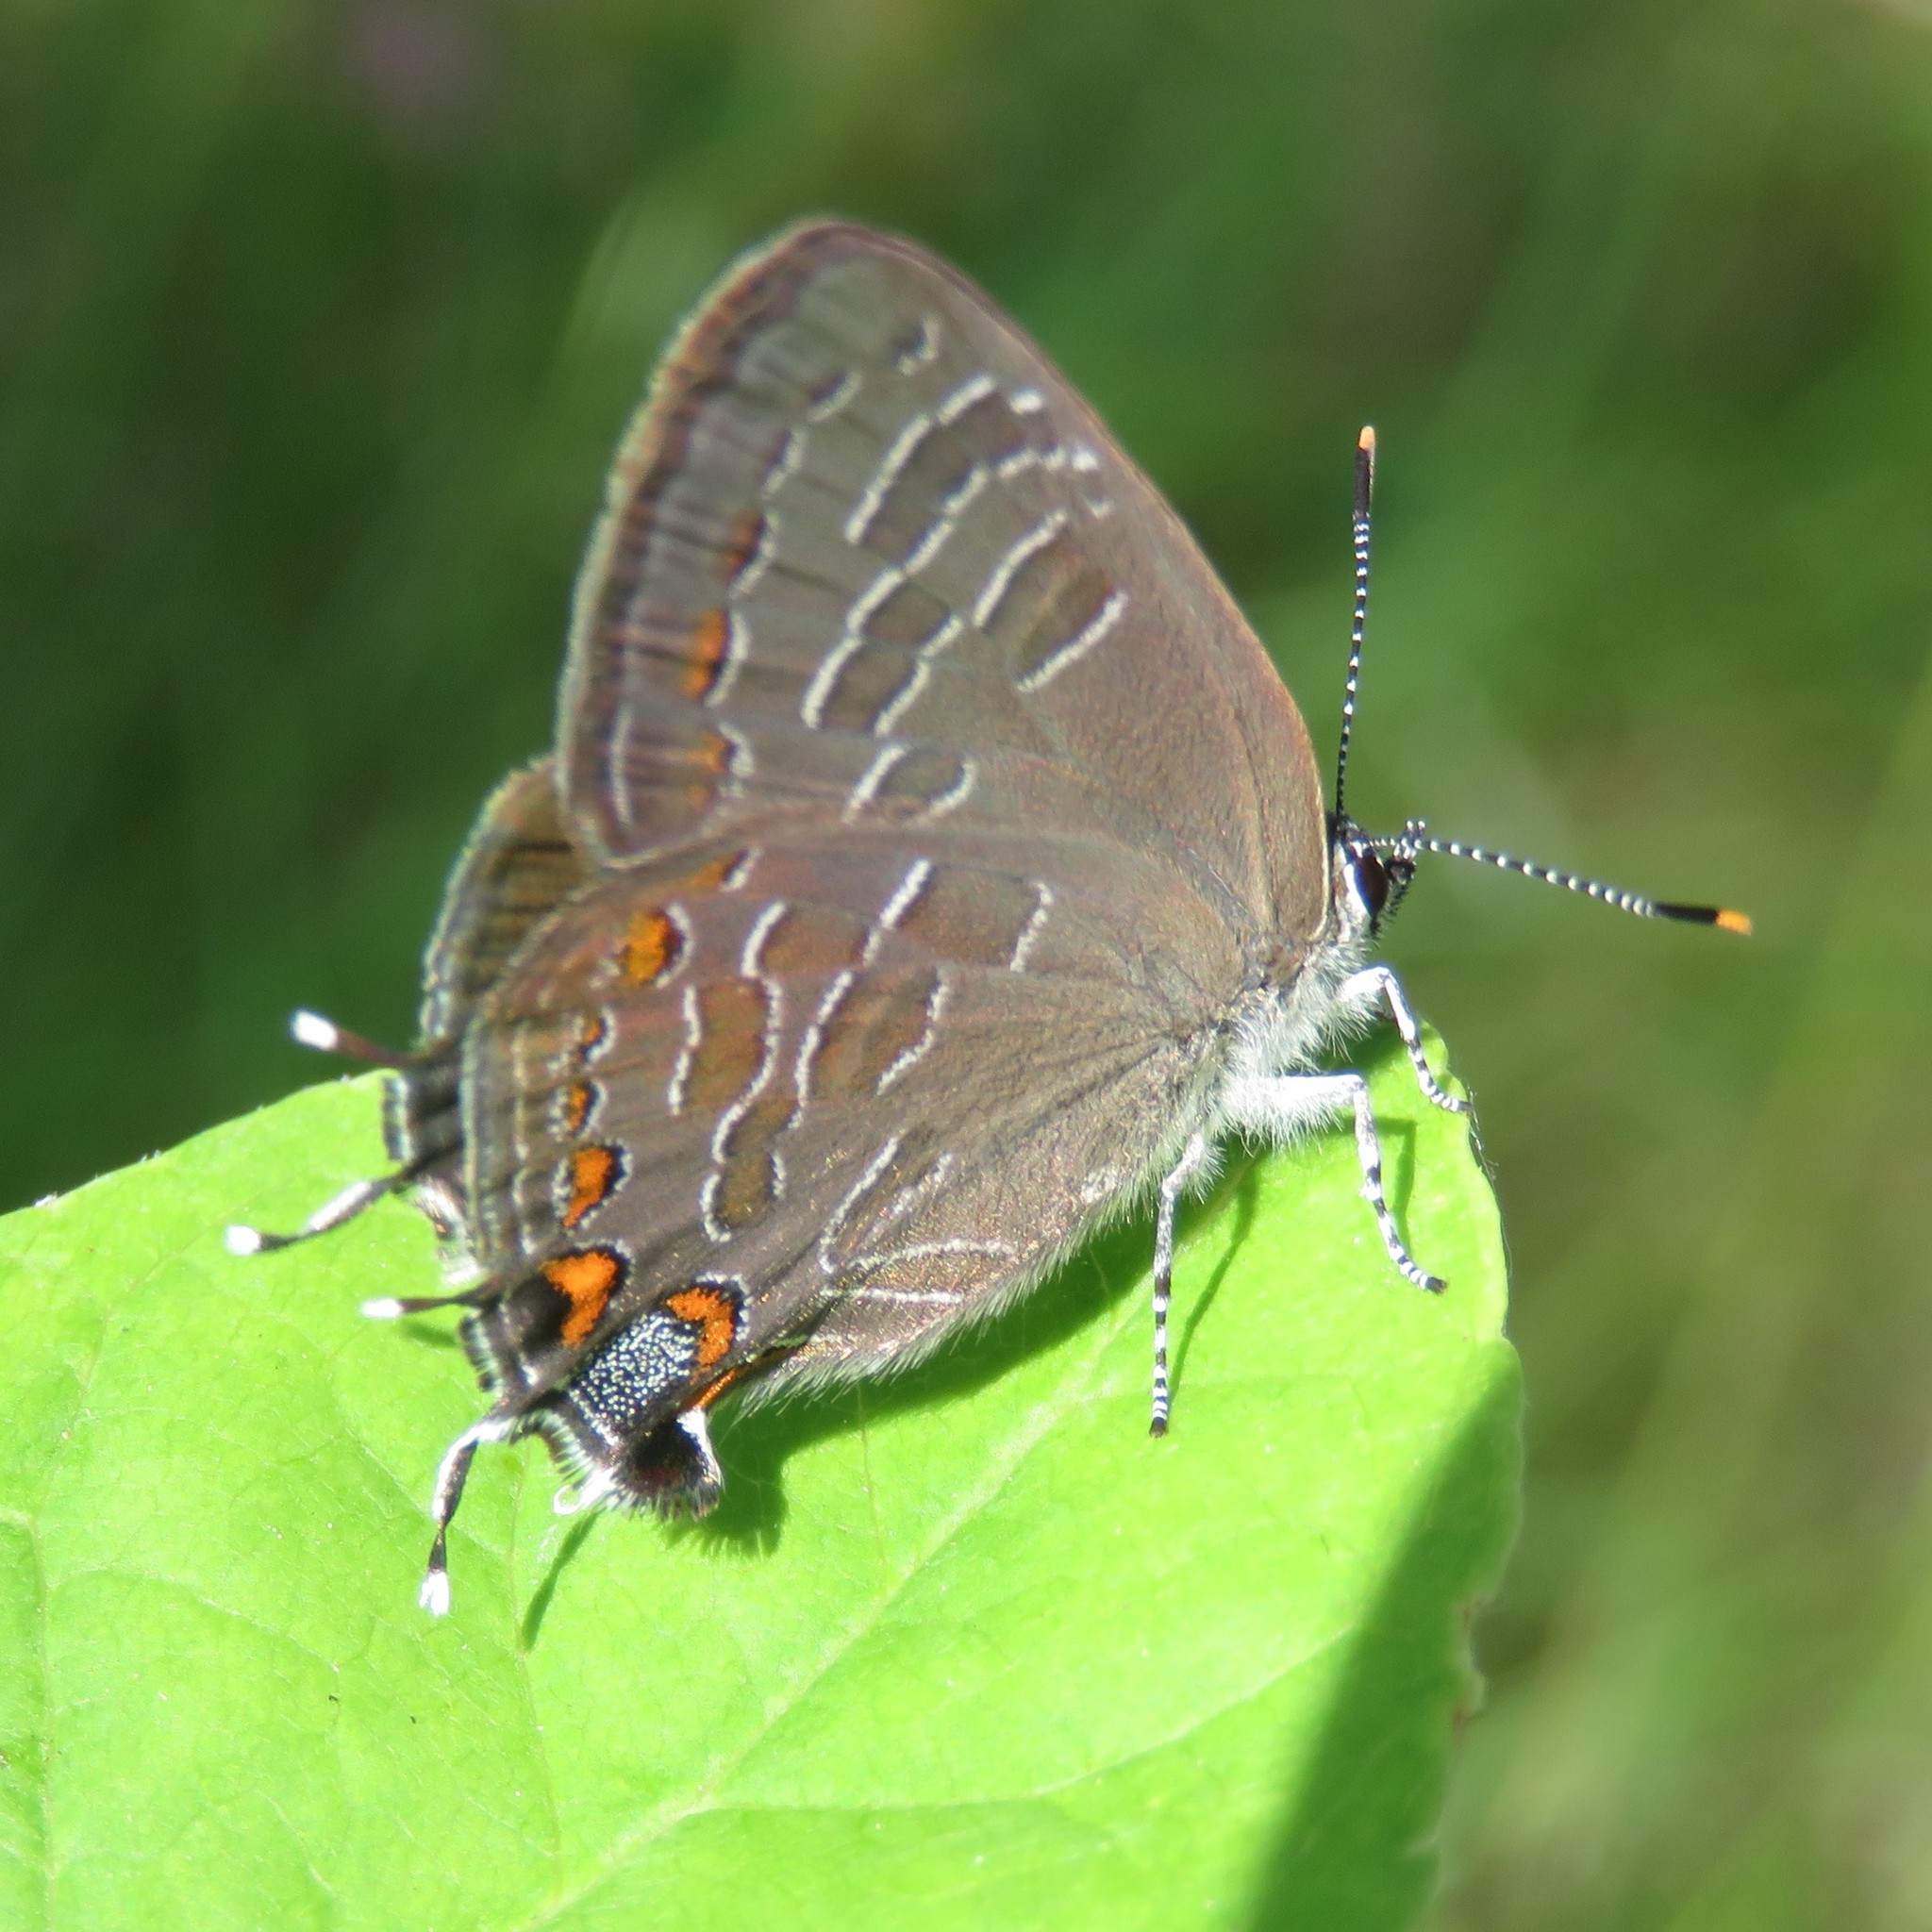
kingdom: Animalia
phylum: Arthropoda
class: Insecta
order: Lepidoptera
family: Lycaenidae
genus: Satyrium
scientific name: Satyrium liparops
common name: Striped hairstreak
